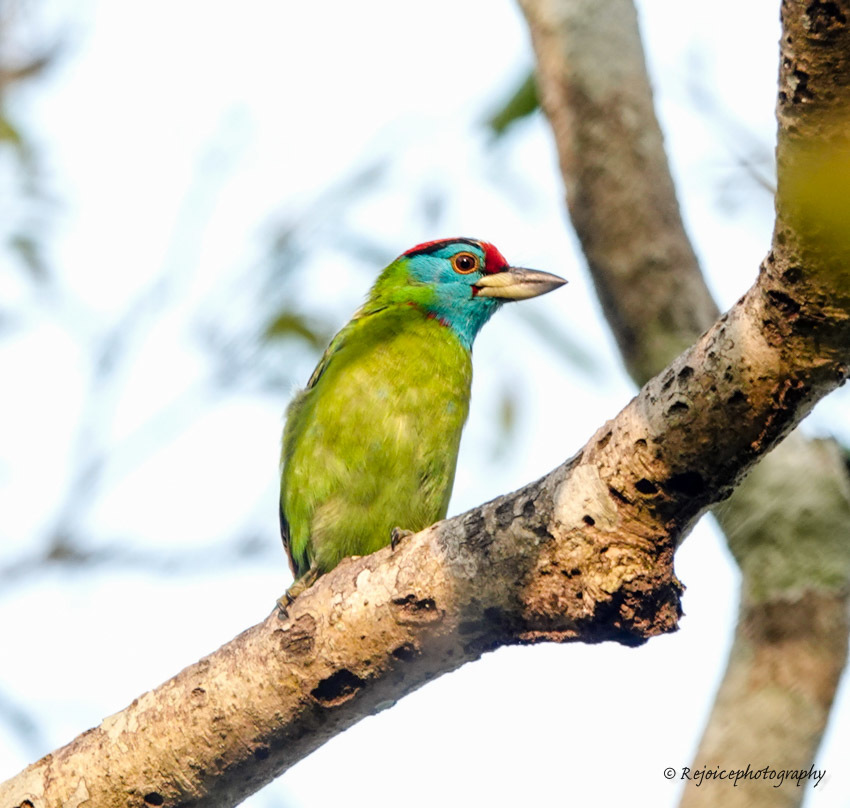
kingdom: Animalia
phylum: Chordata
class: Aves
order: Piciformes
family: Megalaimidae
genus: Psilopogon
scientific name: Psilopogon asiaticus
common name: Blue-throated barbet
